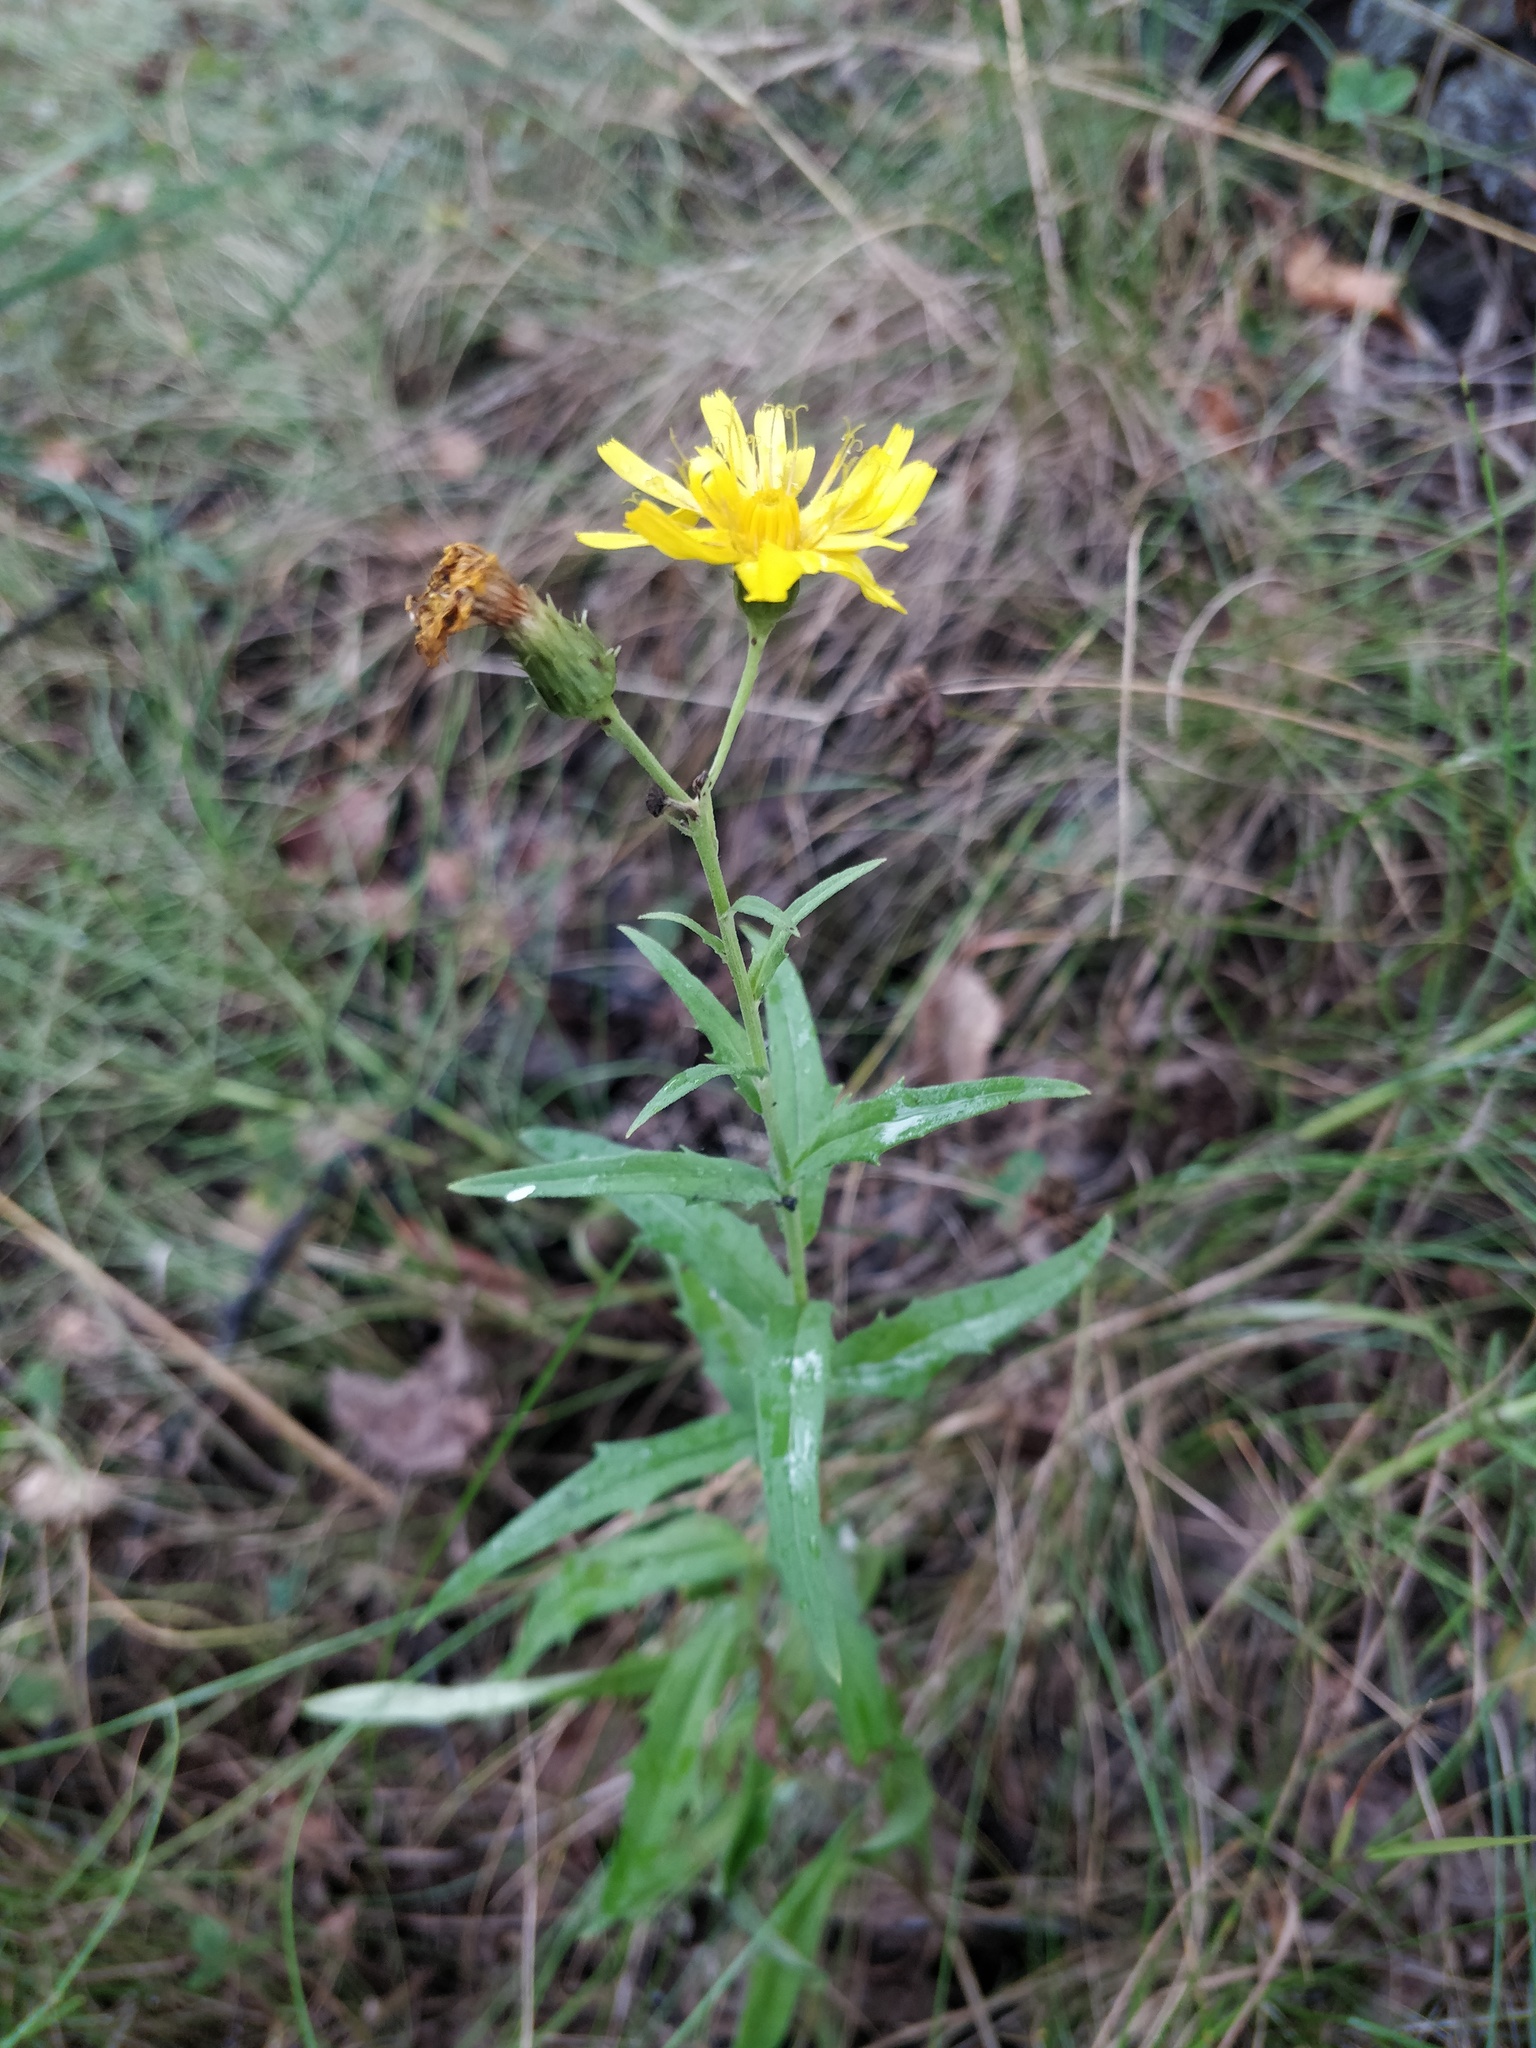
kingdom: Plantae
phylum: Tracheophyta
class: Magnoliopsida
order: Asterales
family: Asteraceae
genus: Hieracium
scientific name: Hieracium umbellatum
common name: Northern hawkweed
